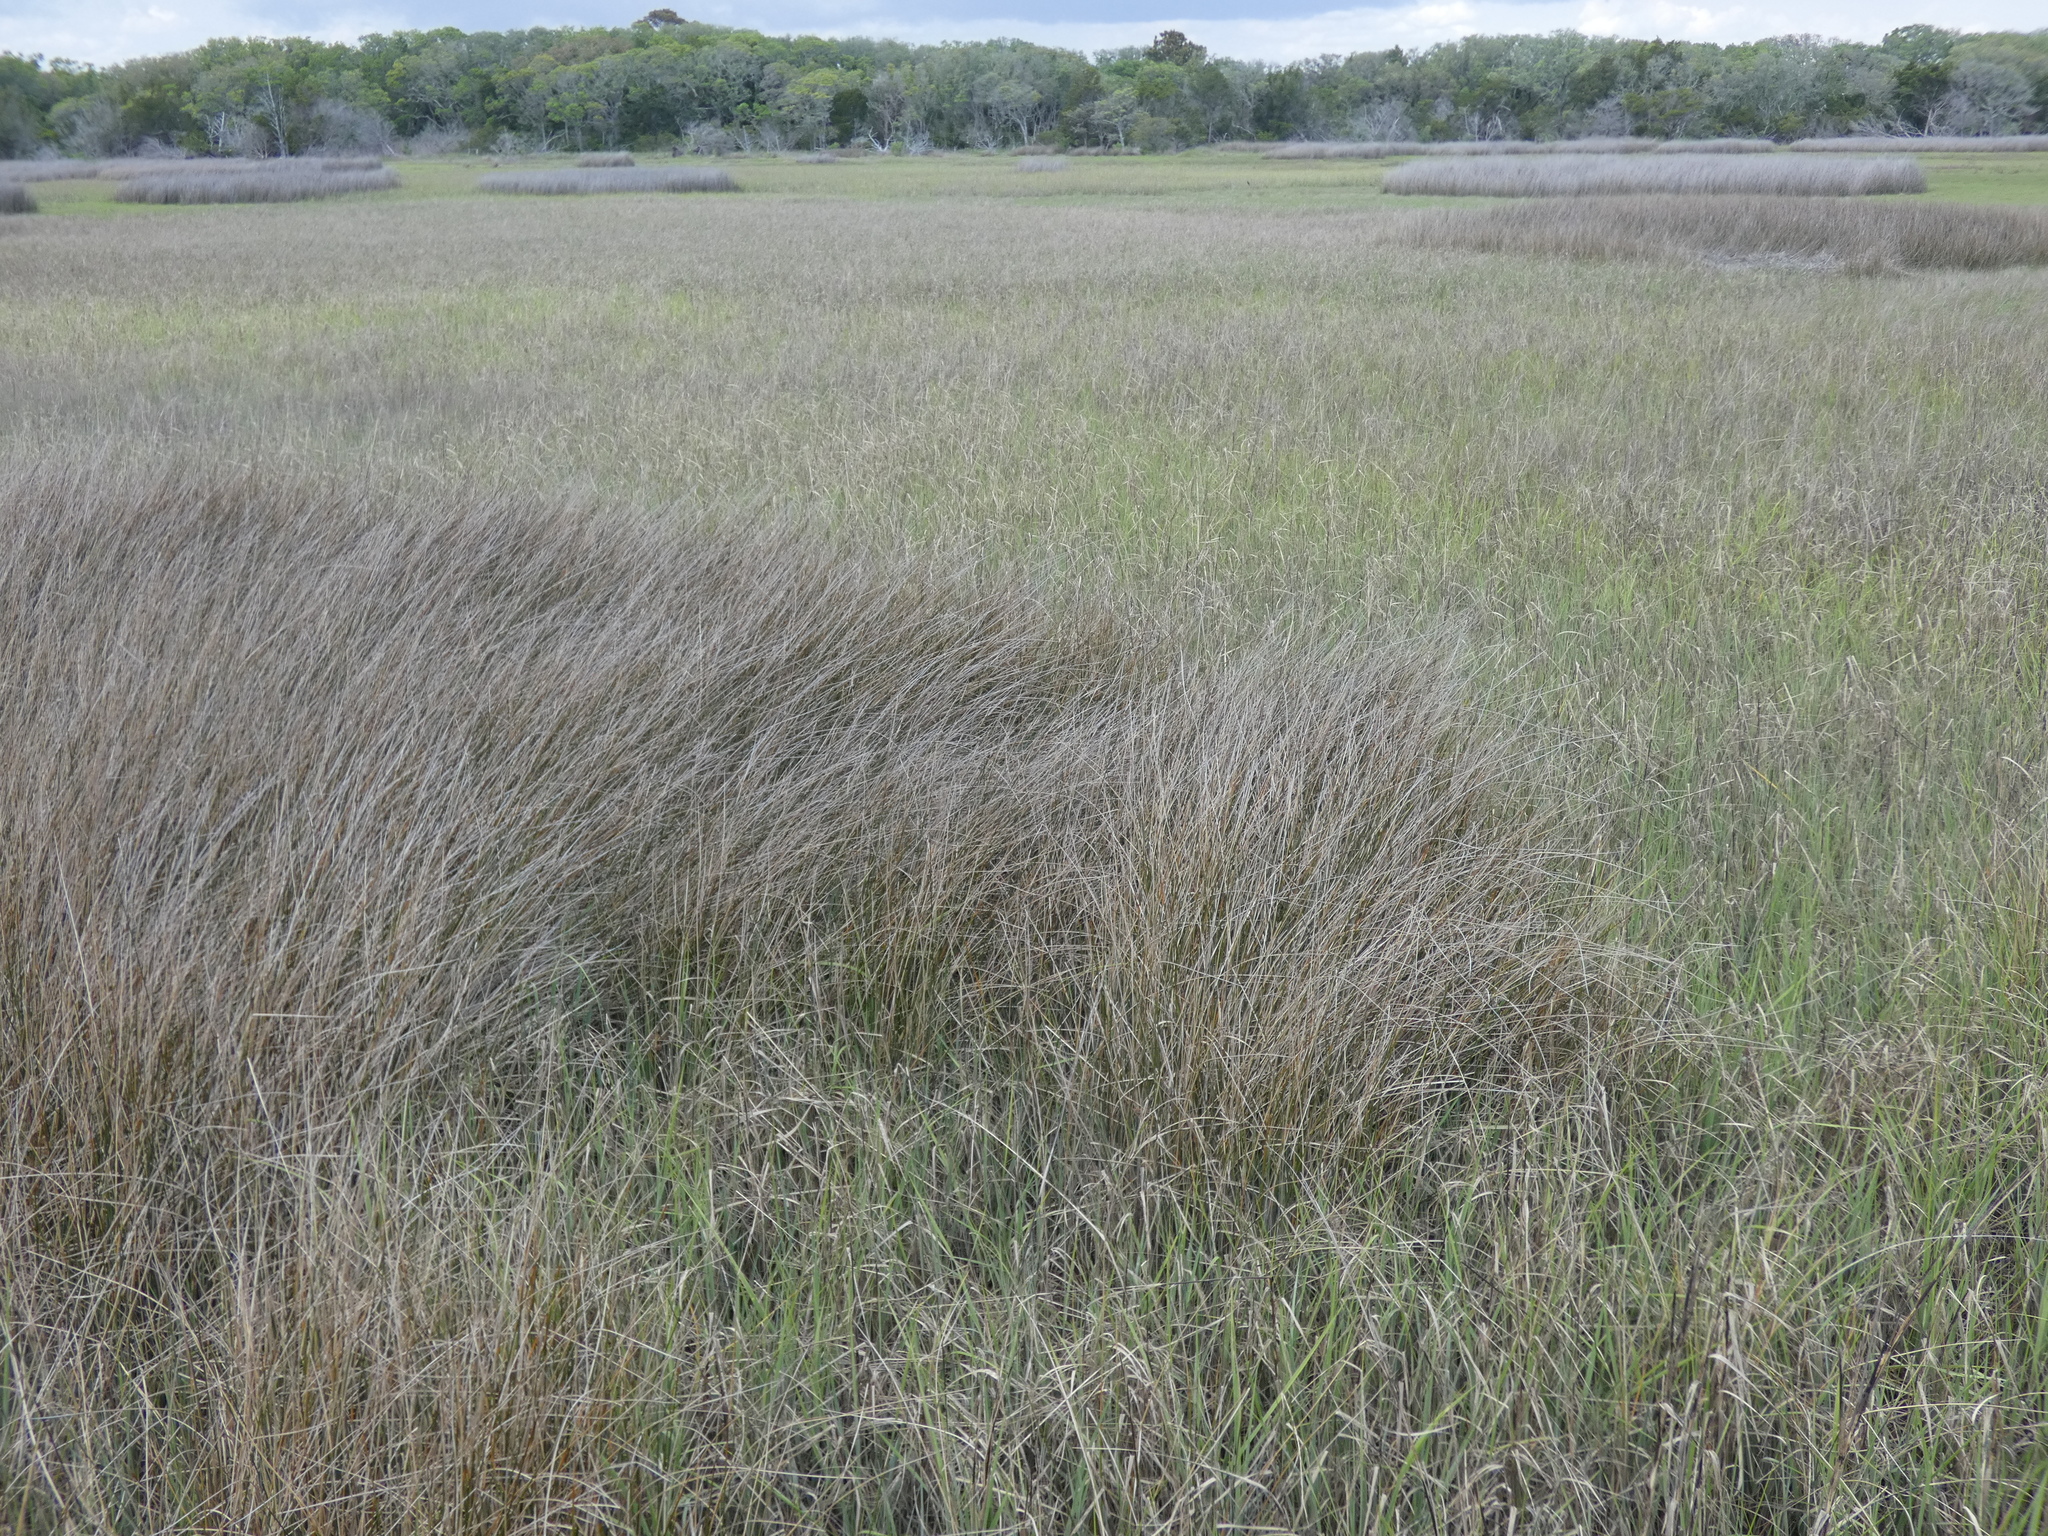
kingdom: Plantae
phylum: Tracheophyta
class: Liliopsida
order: Poales
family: Juncaceae
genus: Juncus
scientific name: Juncus roemerianus
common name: Roemer's rush
